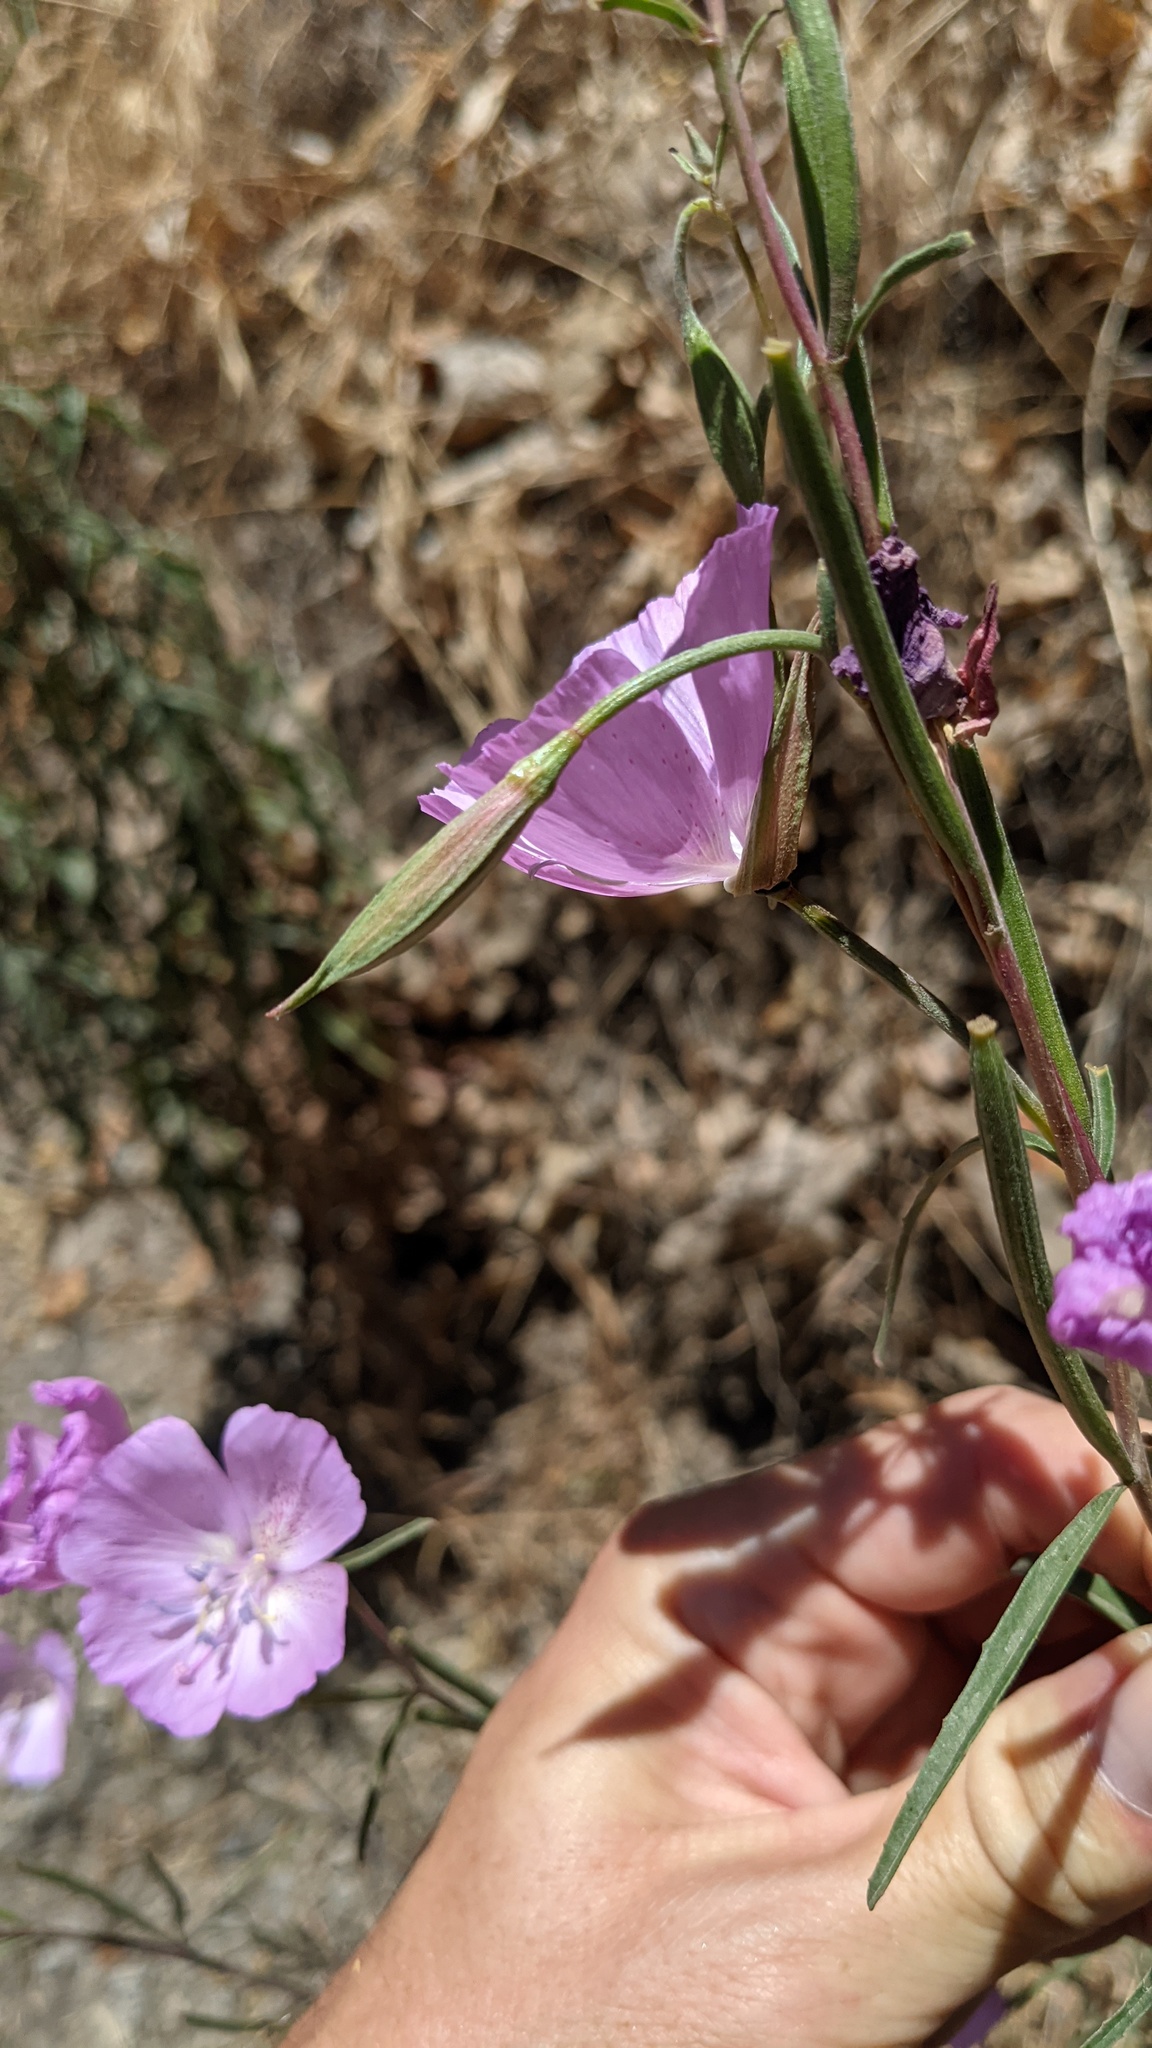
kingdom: Plantae
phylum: Tracheophyta
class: Magnoliopsida
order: Myrtales
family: Onagraceae
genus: Clarkia
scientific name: Clarkia bottae
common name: Punch-bowl godetia
